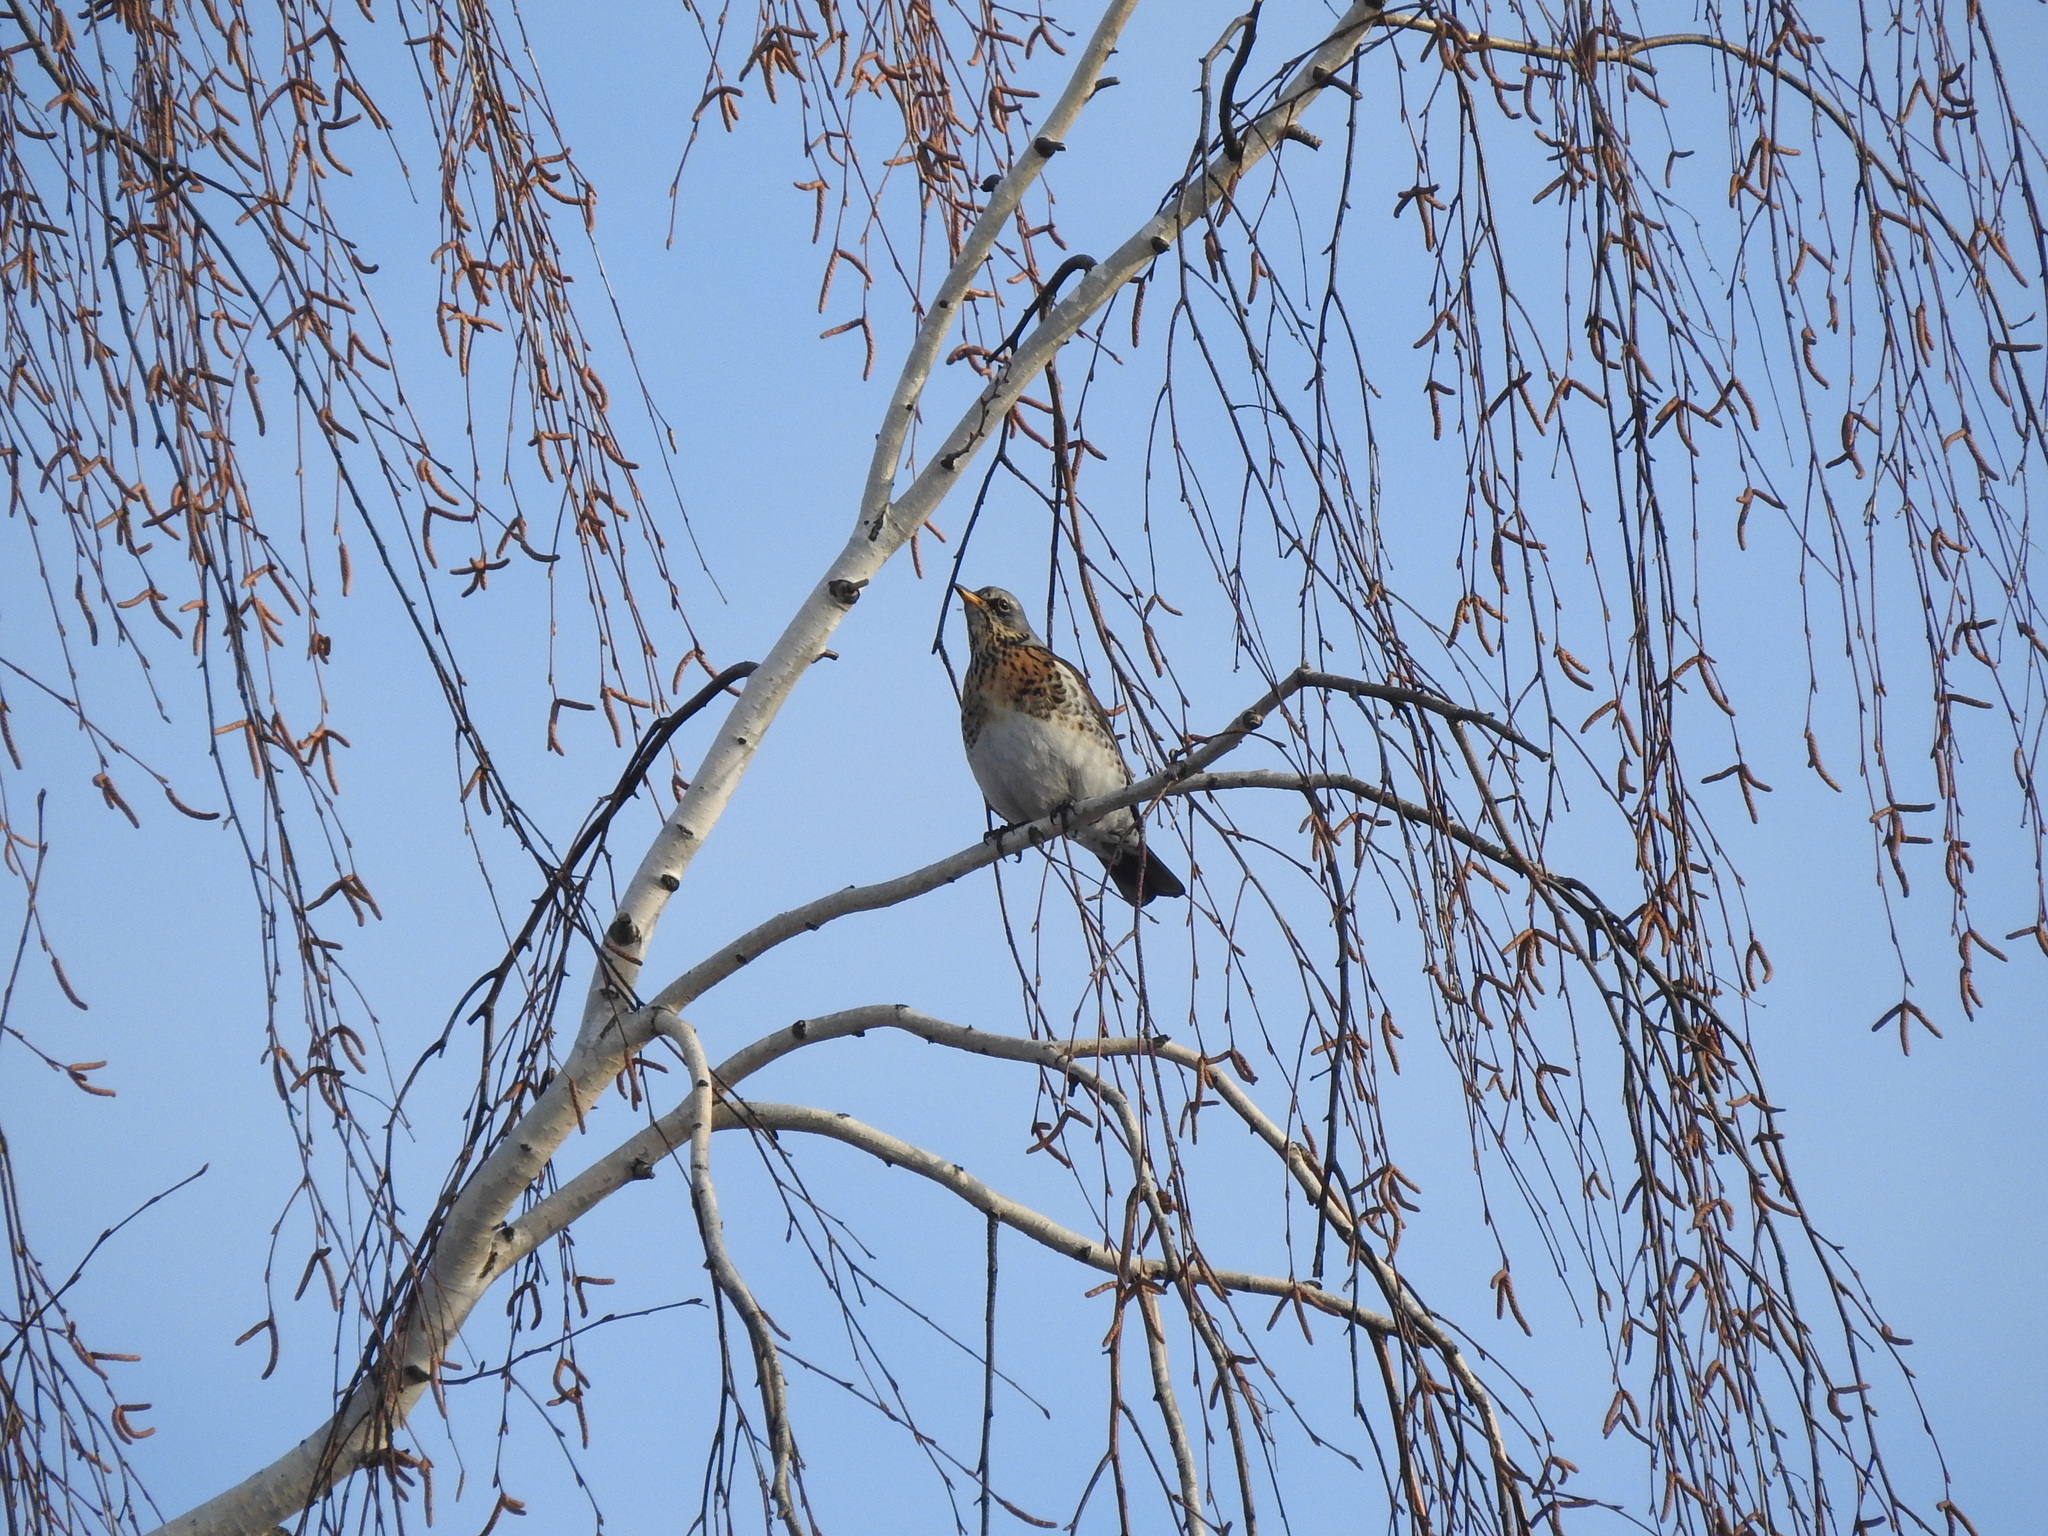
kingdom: Animalia
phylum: Chordata
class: Aves
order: Passeriformes
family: Turdidae
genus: Turdus
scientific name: Turdus pilaris
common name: Fieldfare
